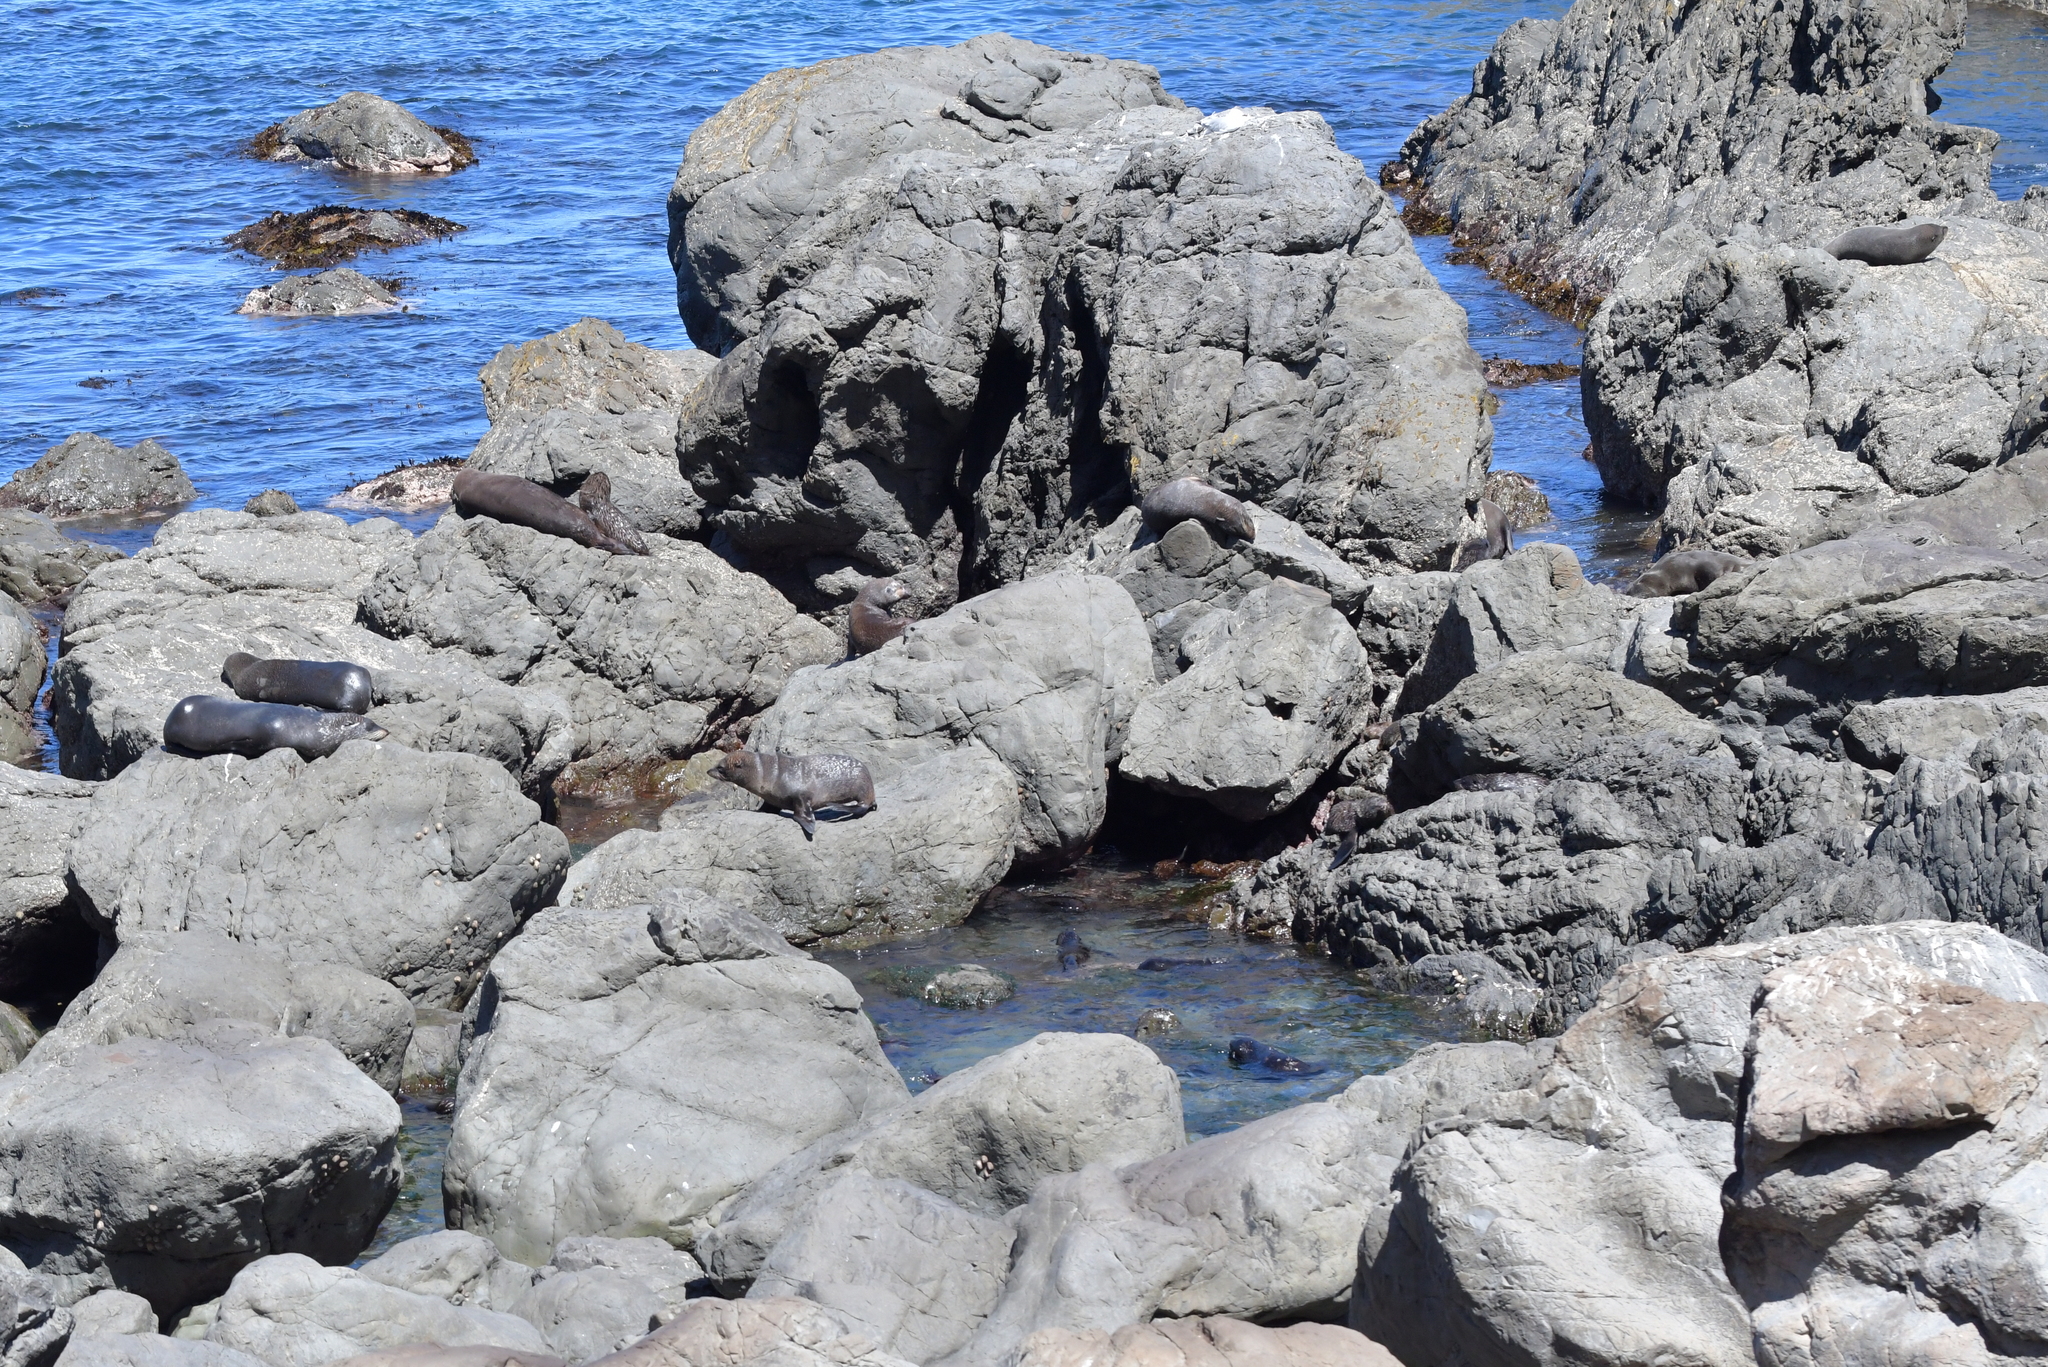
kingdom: Animalia
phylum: Chordata
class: Mammalia
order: Carnivora
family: Otariidae
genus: Arctocephalus
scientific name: Arctocephalus forsteri
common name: New zealand fur seal
